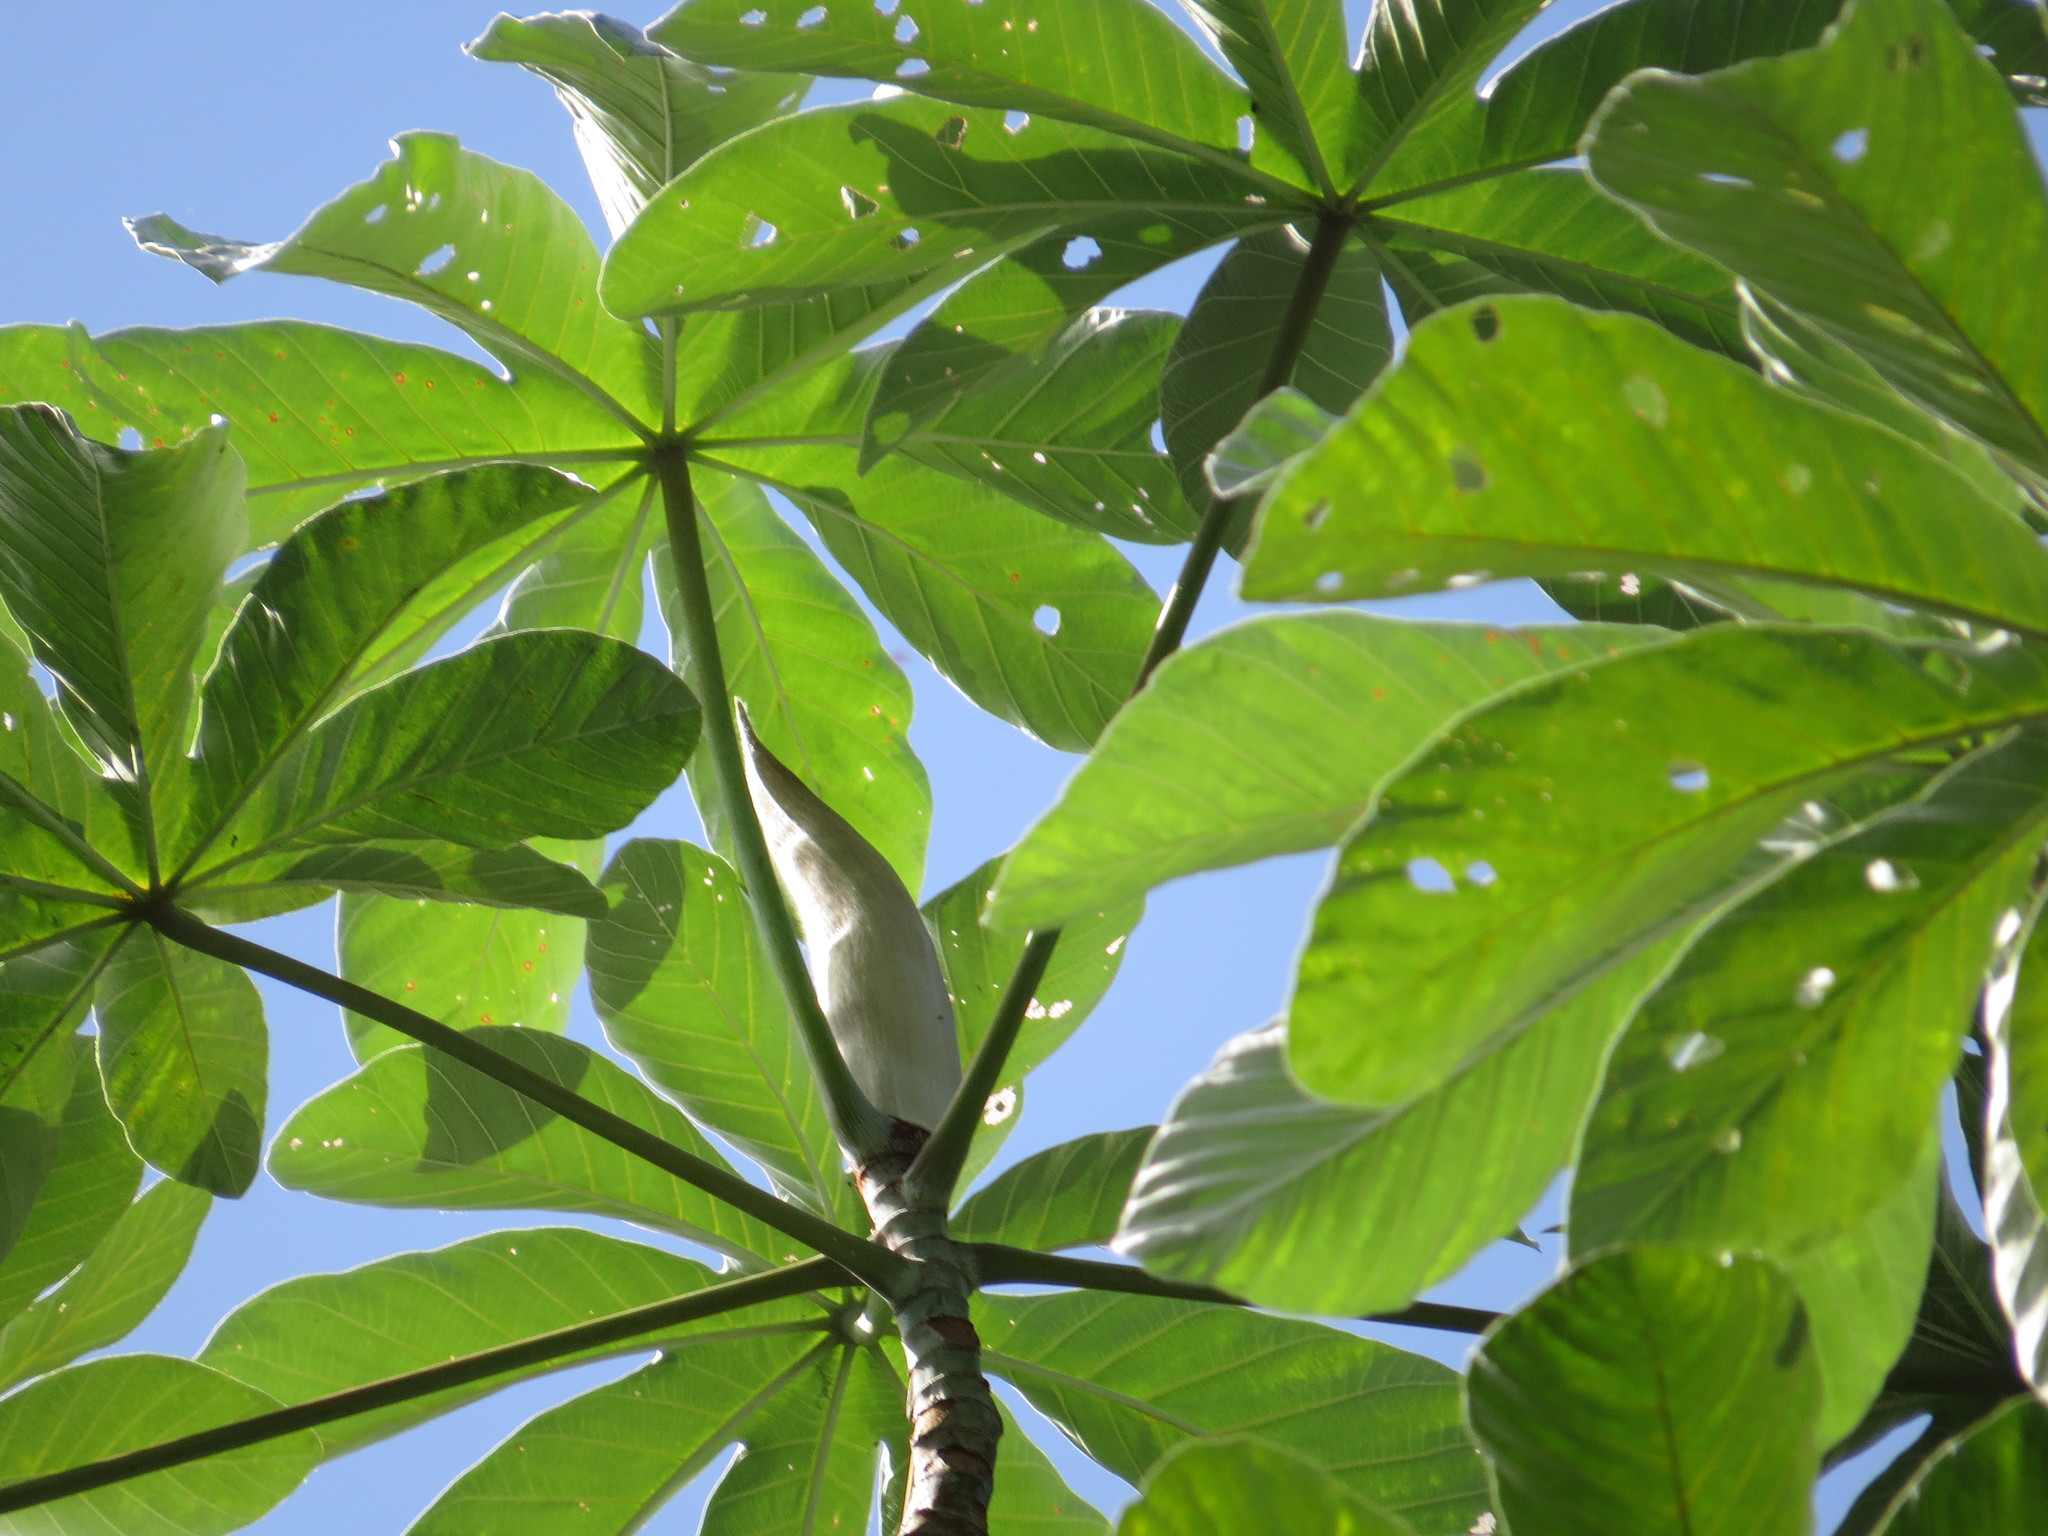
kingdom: Plantae
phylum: Tracheophyta
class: Magnoliopsida
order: Rosales
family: Urticaceae
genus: Cecropia
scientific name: Cecropia hololeuca
